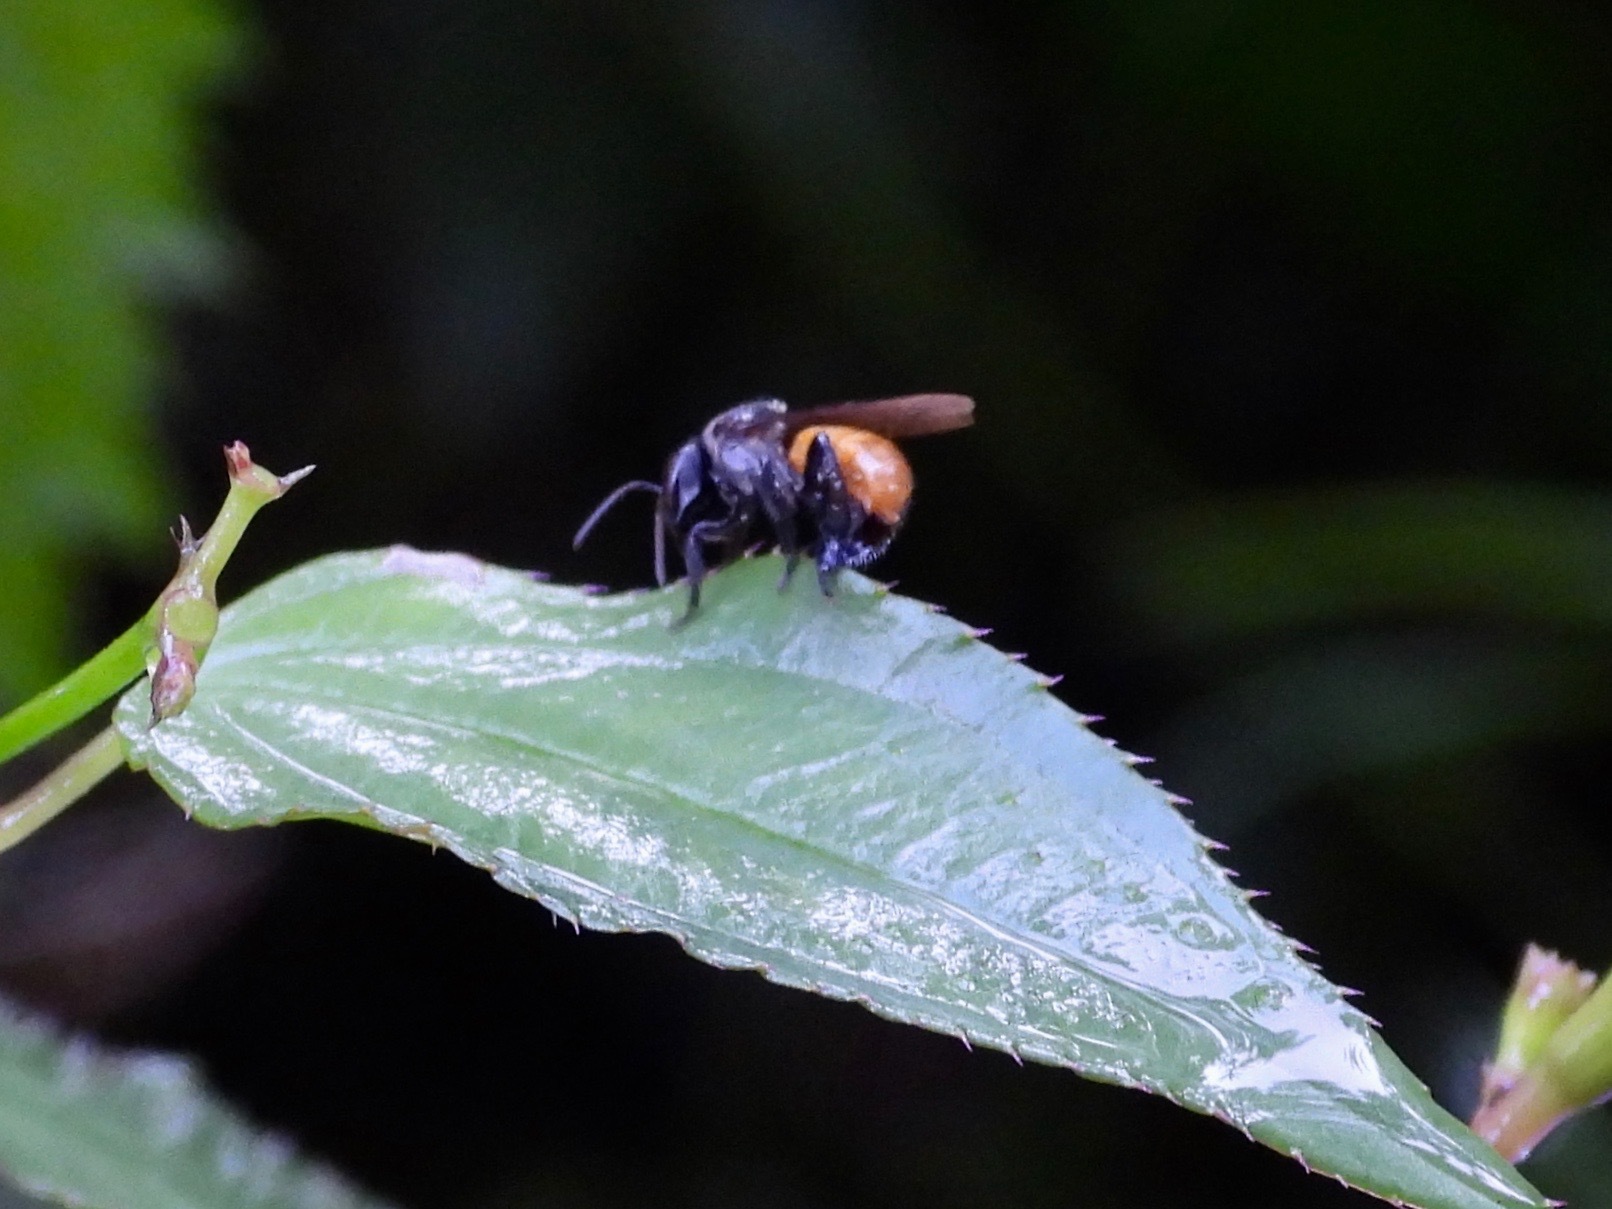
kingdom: Animalia
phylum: Arthropoda
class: Insecta
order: Hymenoptera
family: Apidae
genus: Trigona
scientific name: Trigona fulviventris
